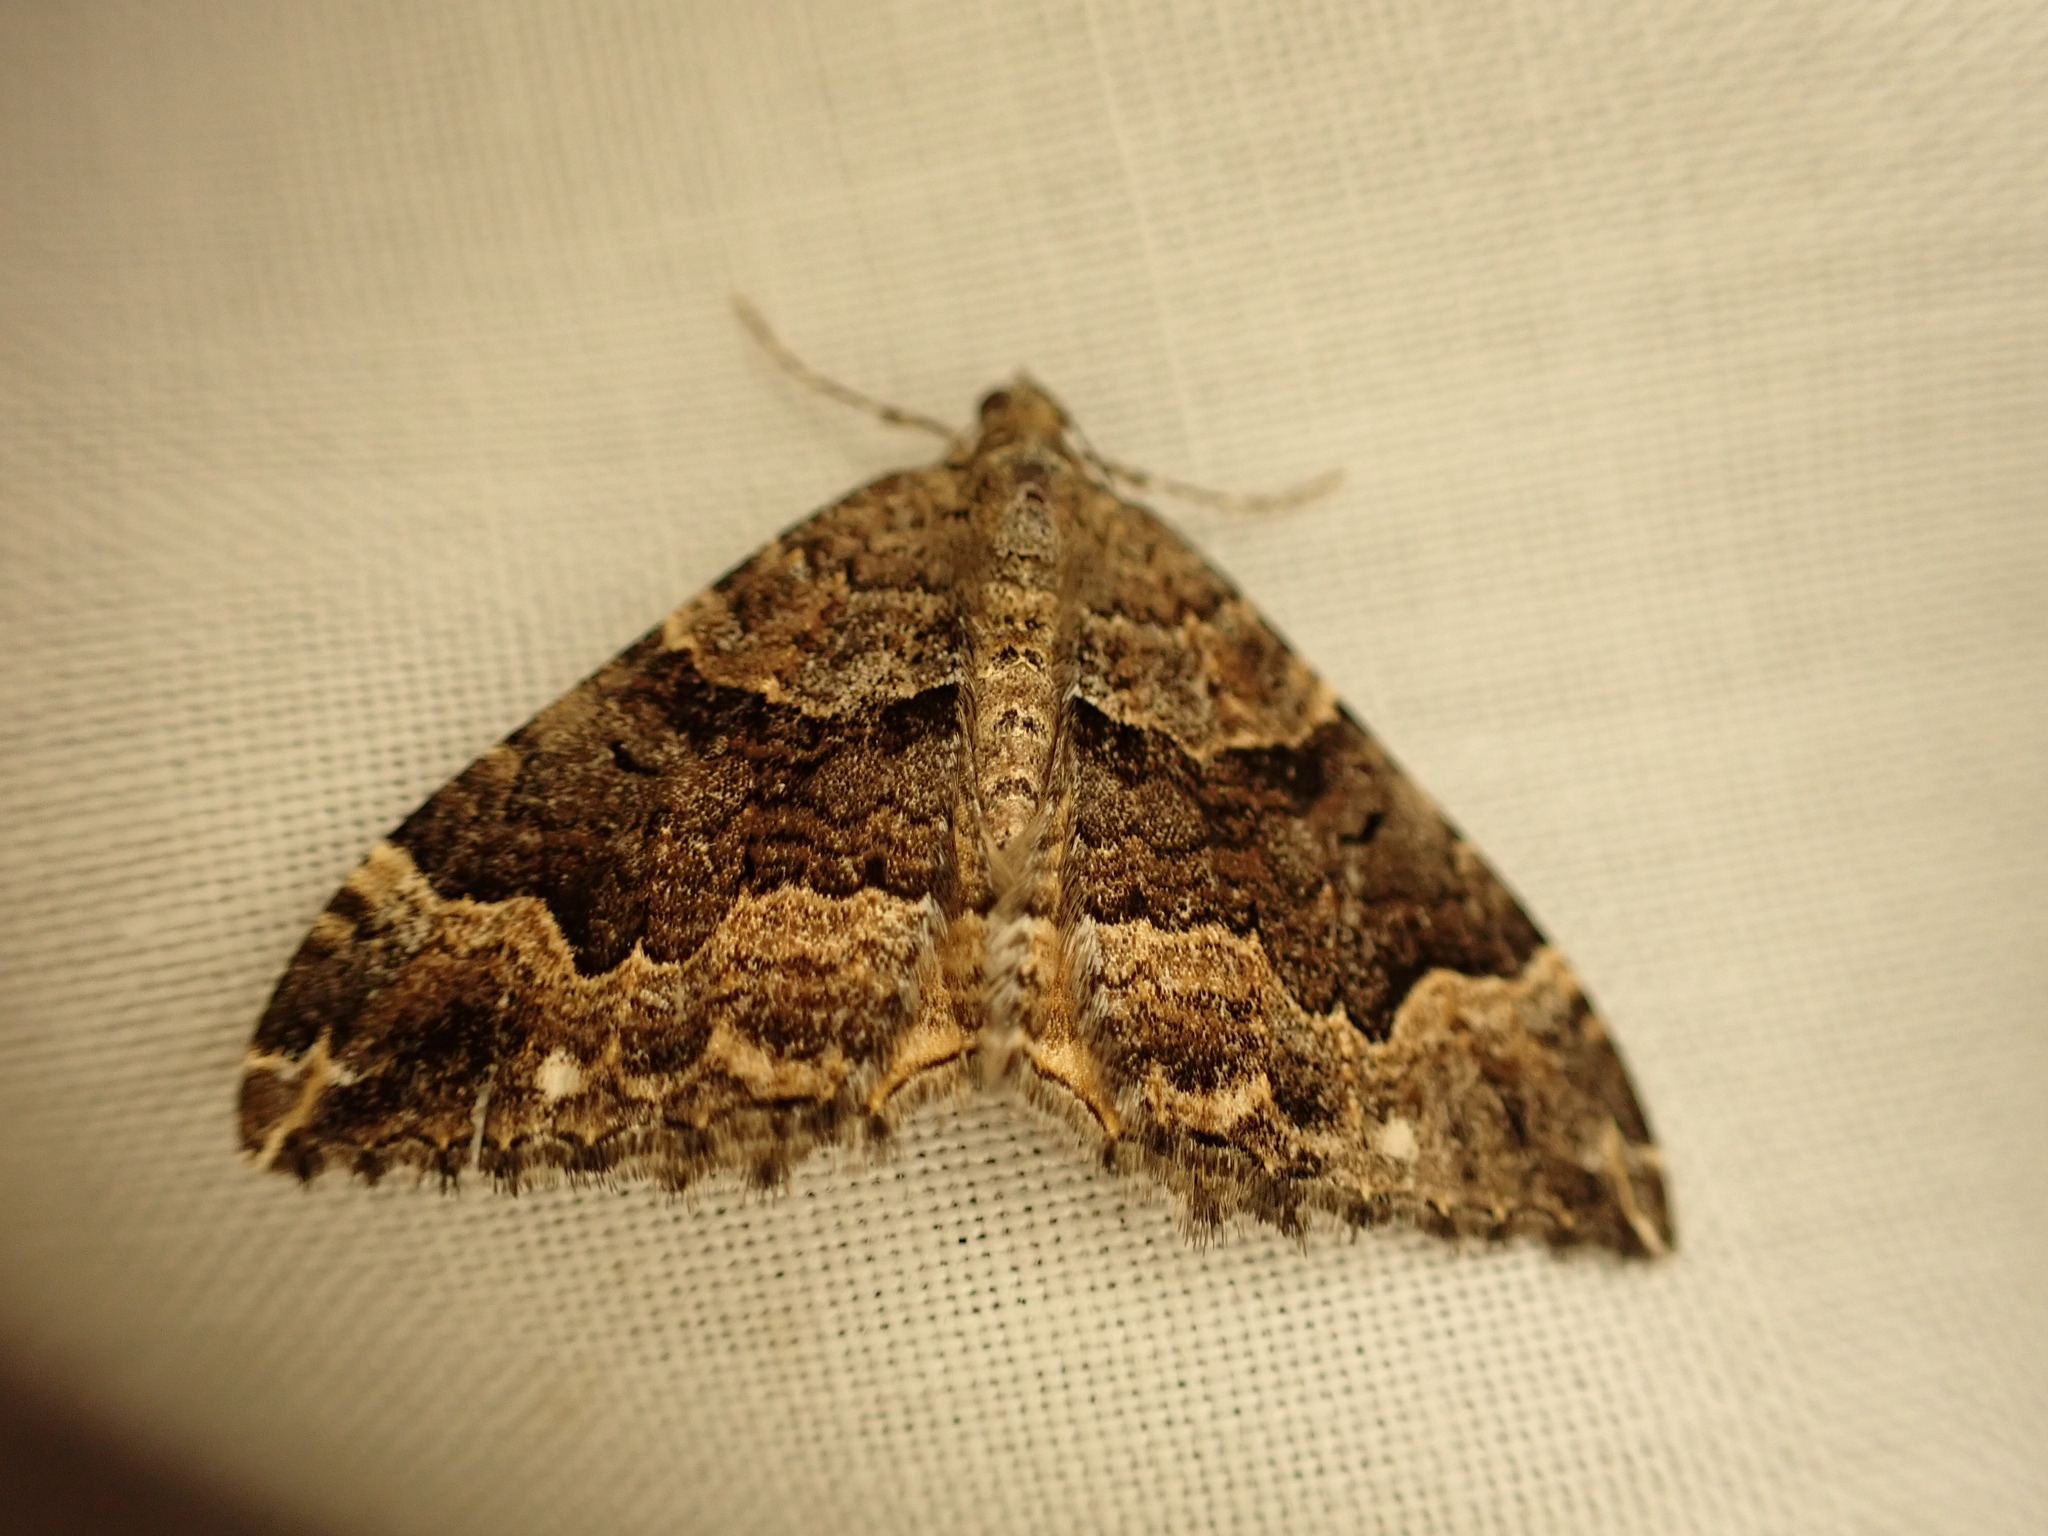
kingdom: Animalia
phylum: Arthropoda
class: Insecta
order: Lepidoptera
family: Geometridae
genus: Hydriomena
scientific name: Hydriomena deltoidata
